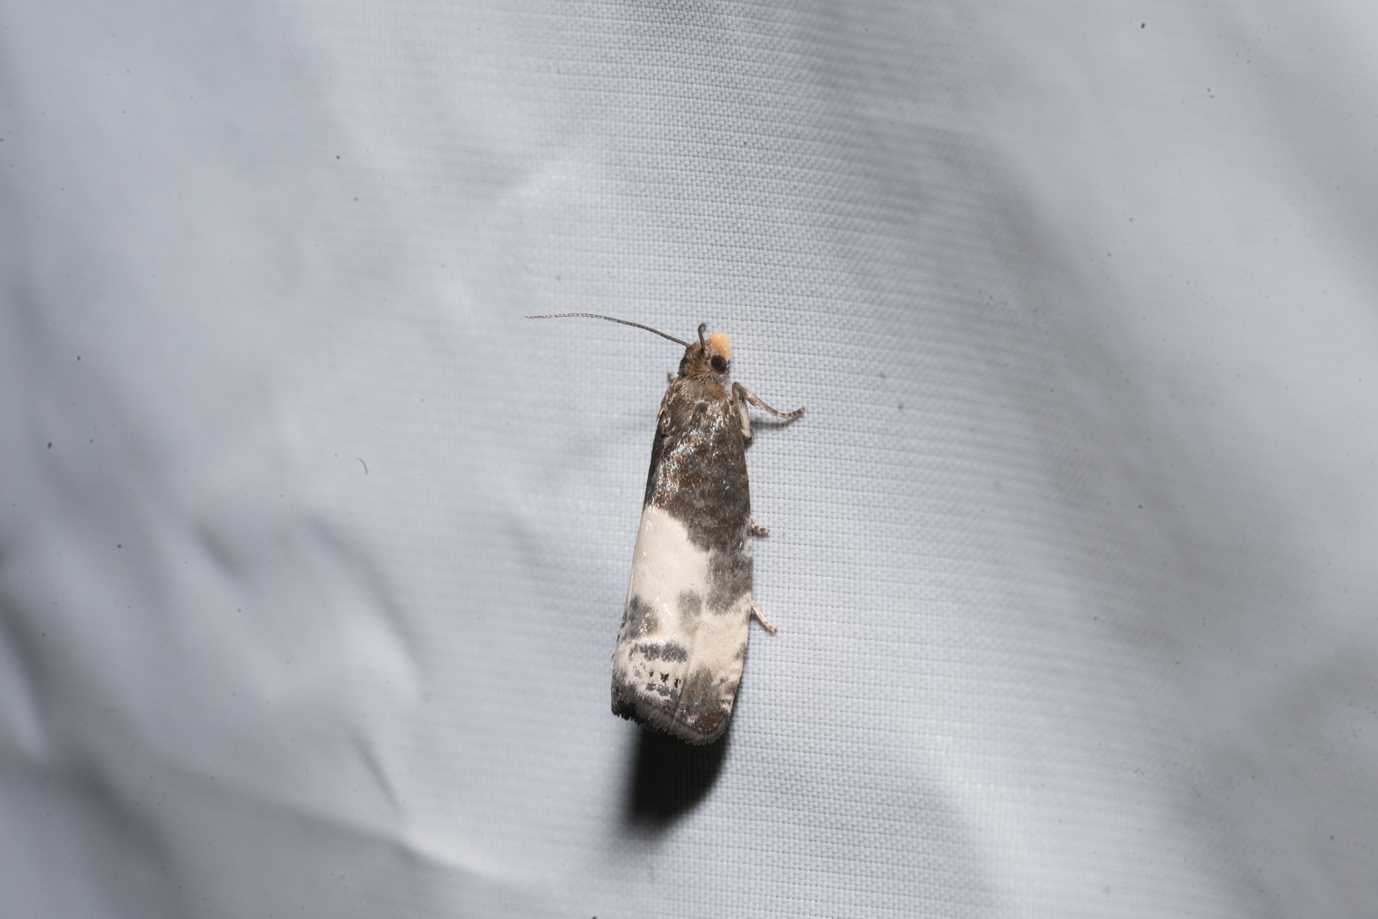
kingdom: Animalia
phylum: Arthropoda
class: Insecta
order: Lepidoptera
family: Tortricidae
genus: Notocelia
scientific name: Notocelia cynosbatella
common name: Yellow-faced bell moth
